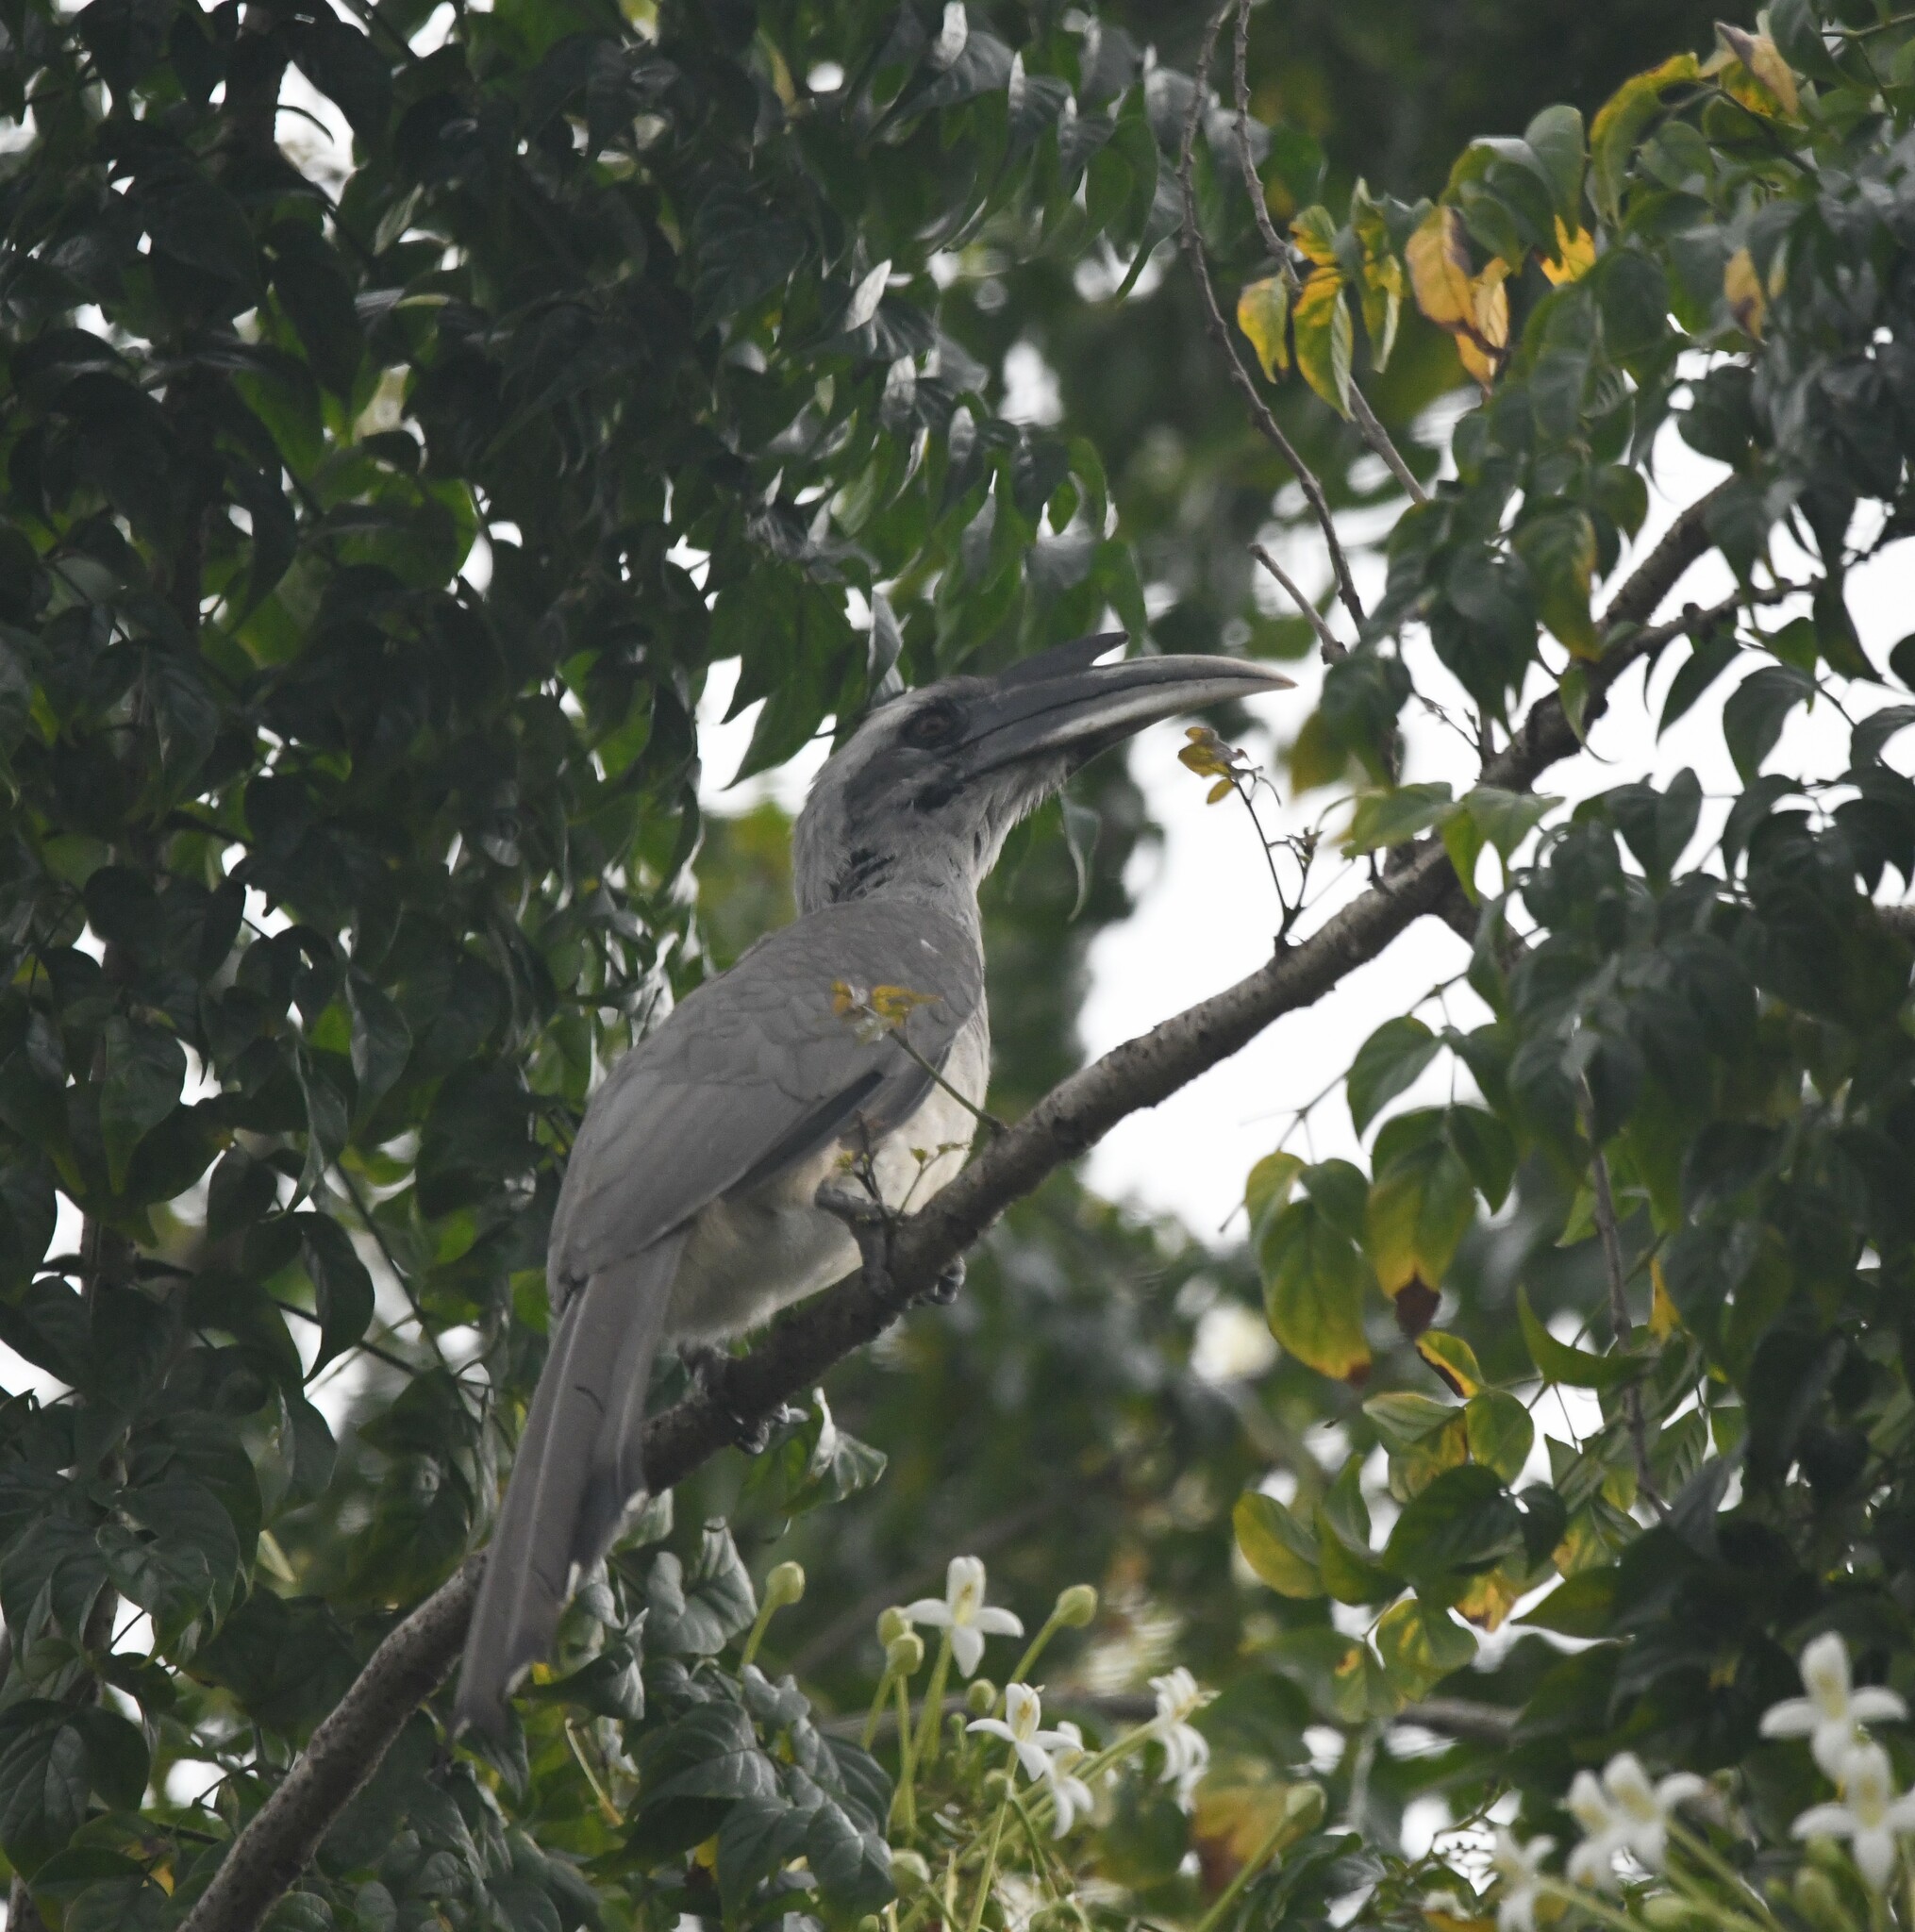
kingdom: Animalia
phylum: Chordata
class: Aves
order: Bucerotiformes
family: Bucerotidae
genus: Ocyceros
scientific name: Ocyceros birostris
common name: Indian grey hornbill
